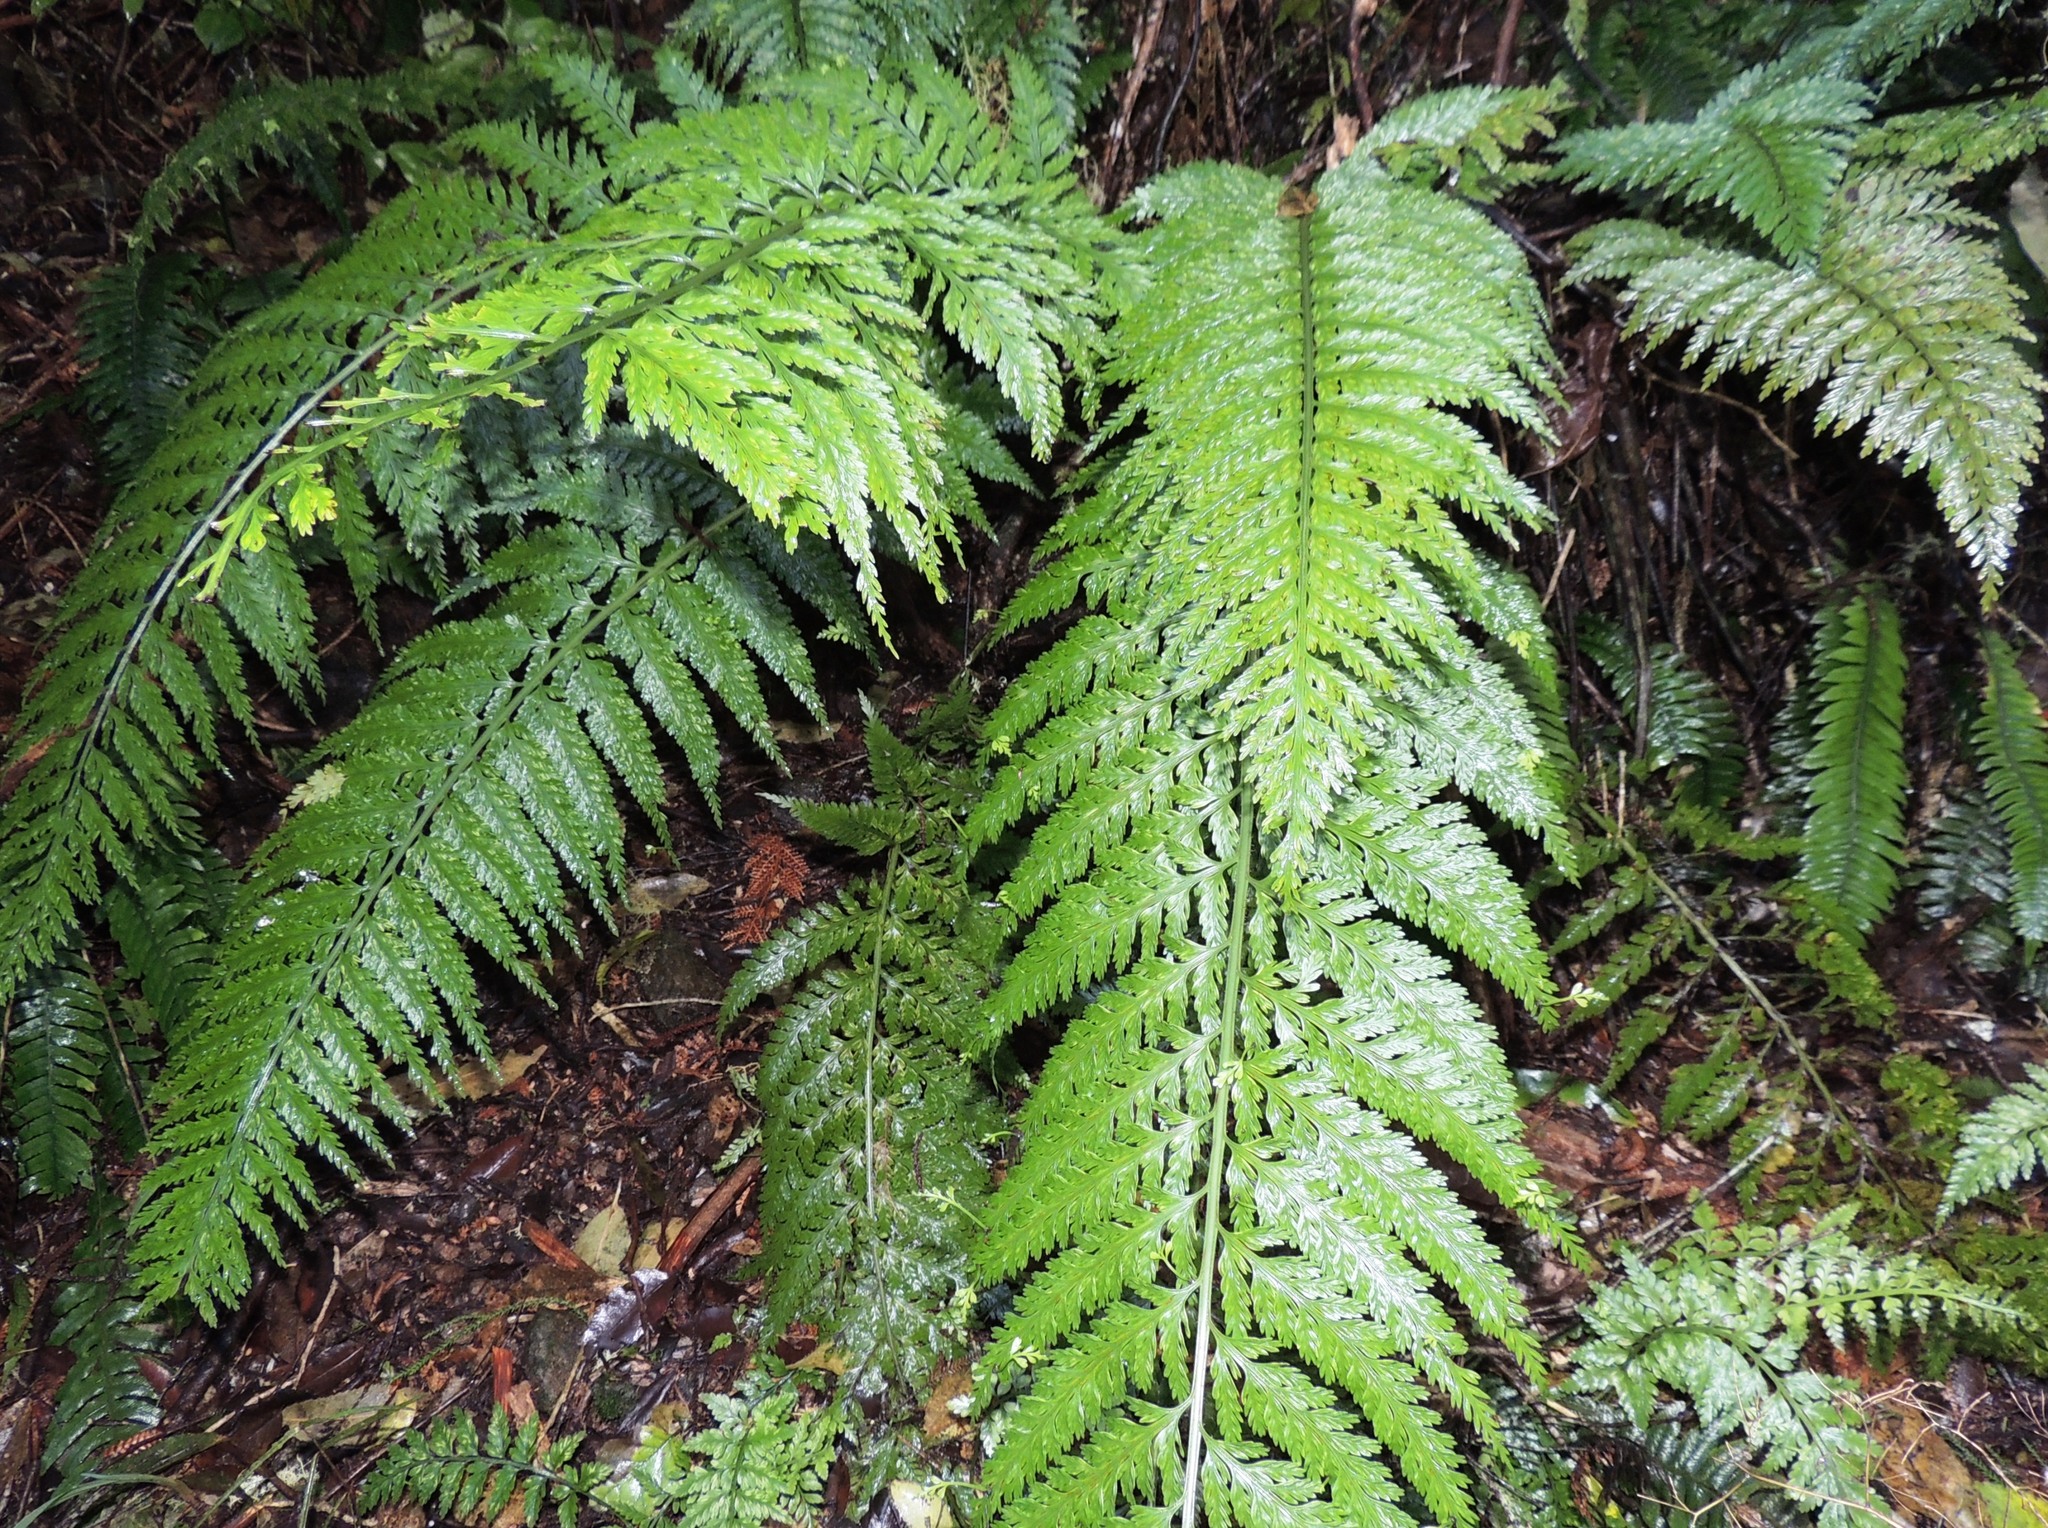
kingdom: Plantae
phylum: Tracheophyta
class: Polypodiopsida
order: Polypodiales
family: Aspleniaceae
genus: Asplenium
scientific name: Asplenium bulbiferum
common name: Mother fern
